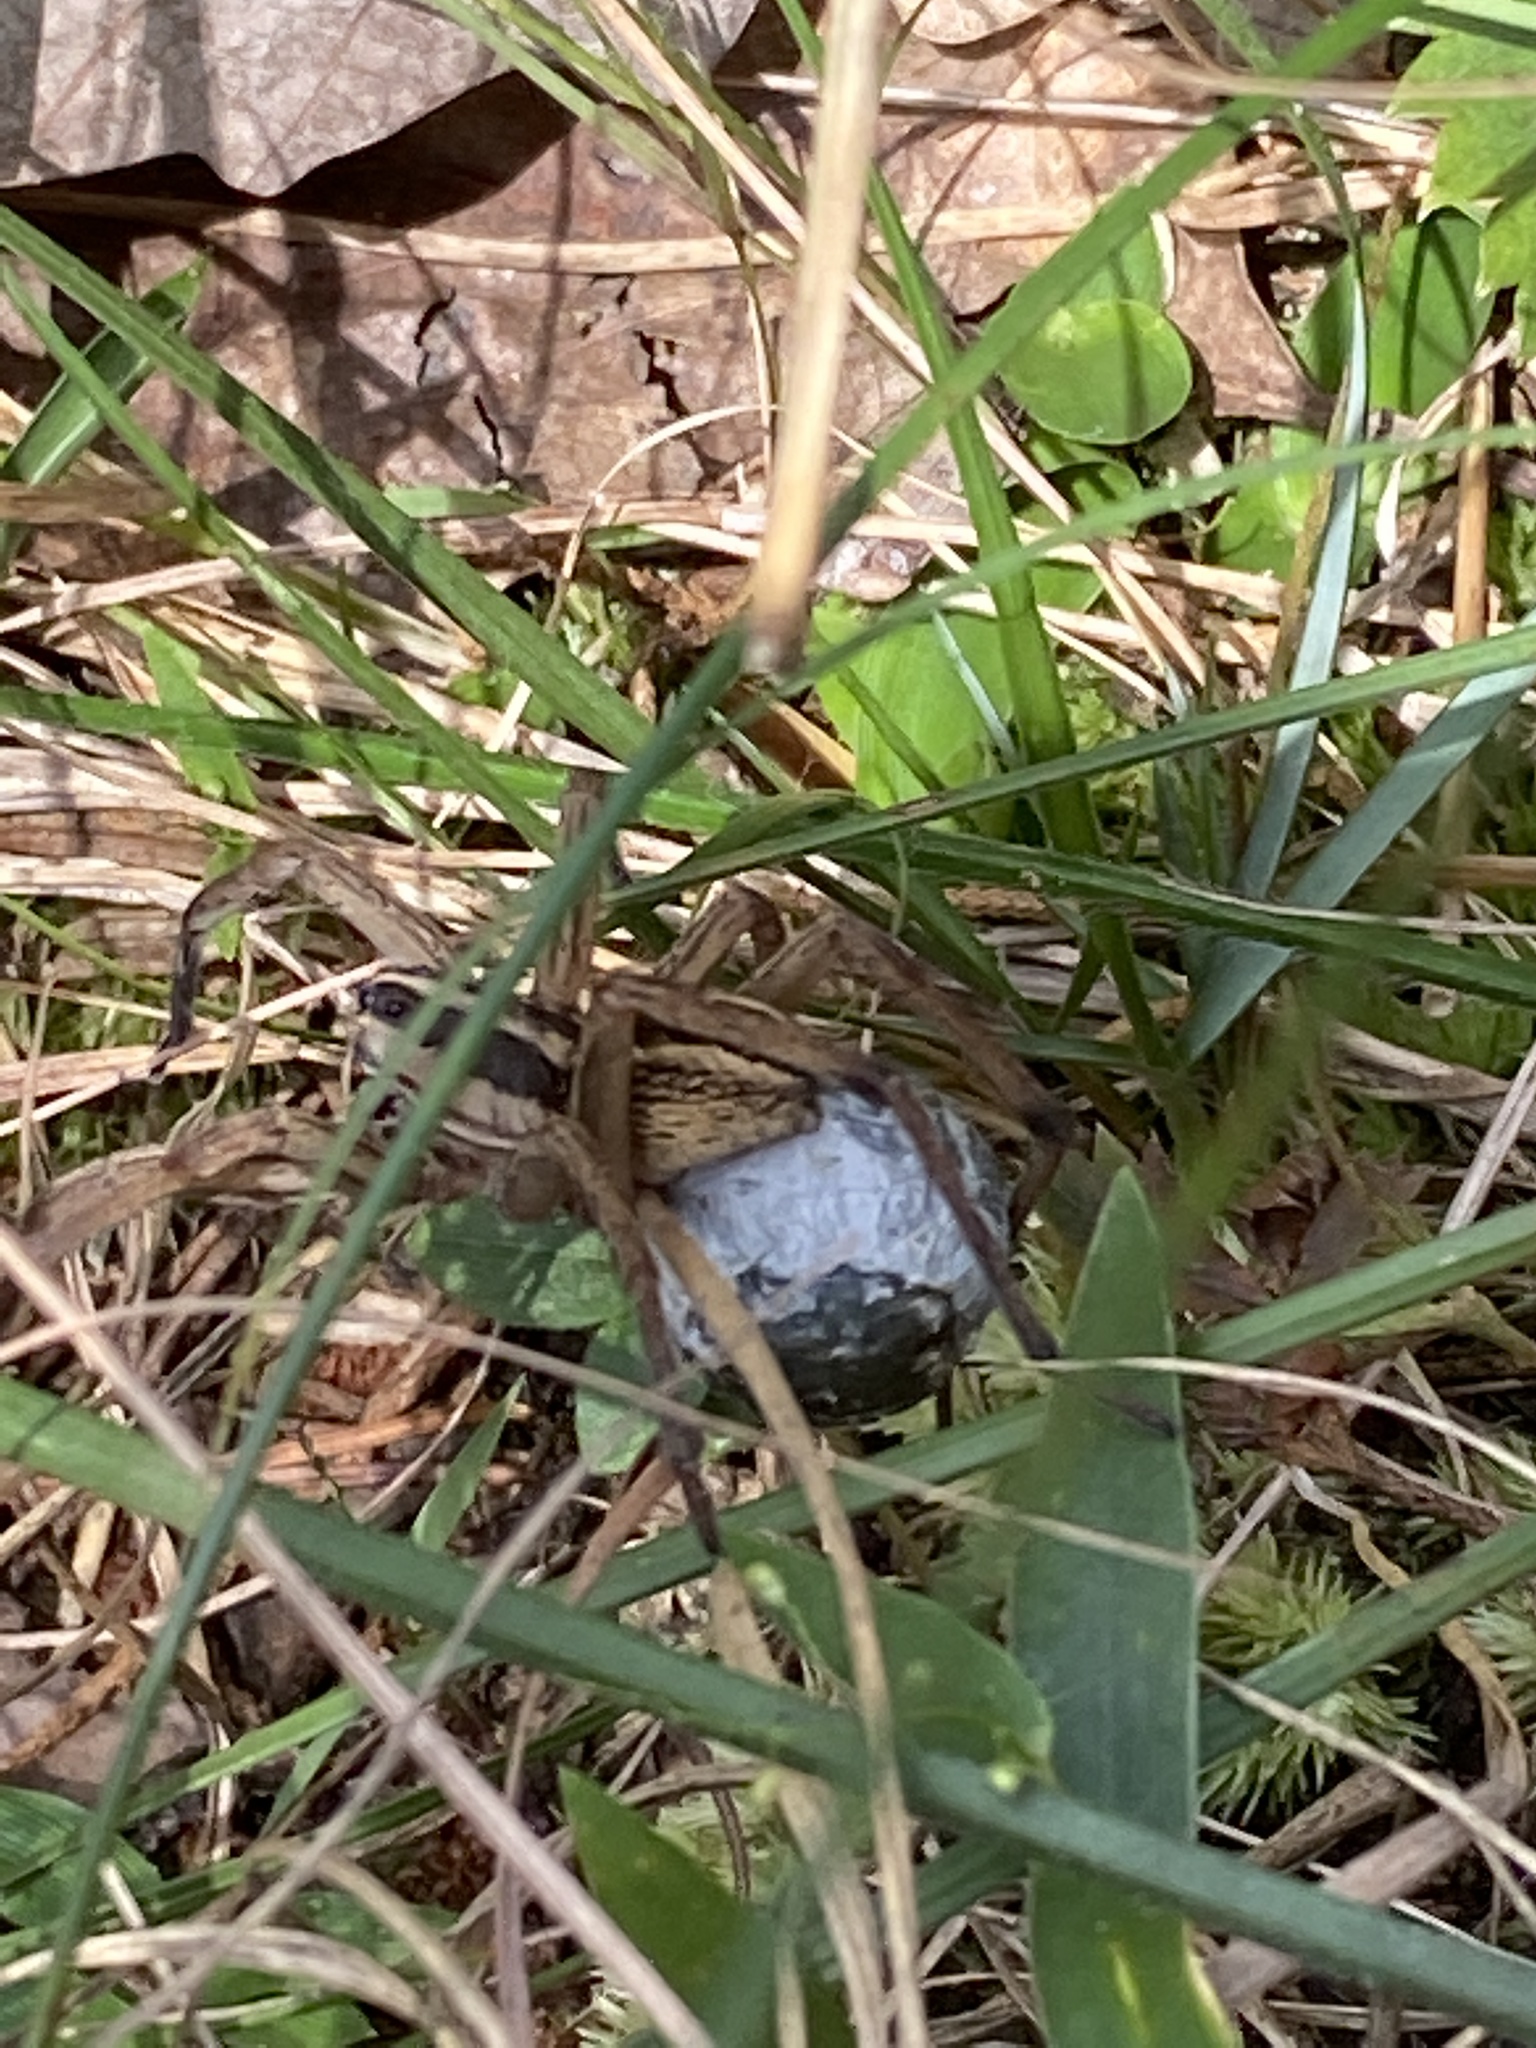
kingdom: Animalia
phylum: Arthropoda
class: Arachnida
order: Araneae
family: Lycosidae
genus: Rabidosa
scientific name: Rabidosa rabida
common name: Rabid wolf spider
